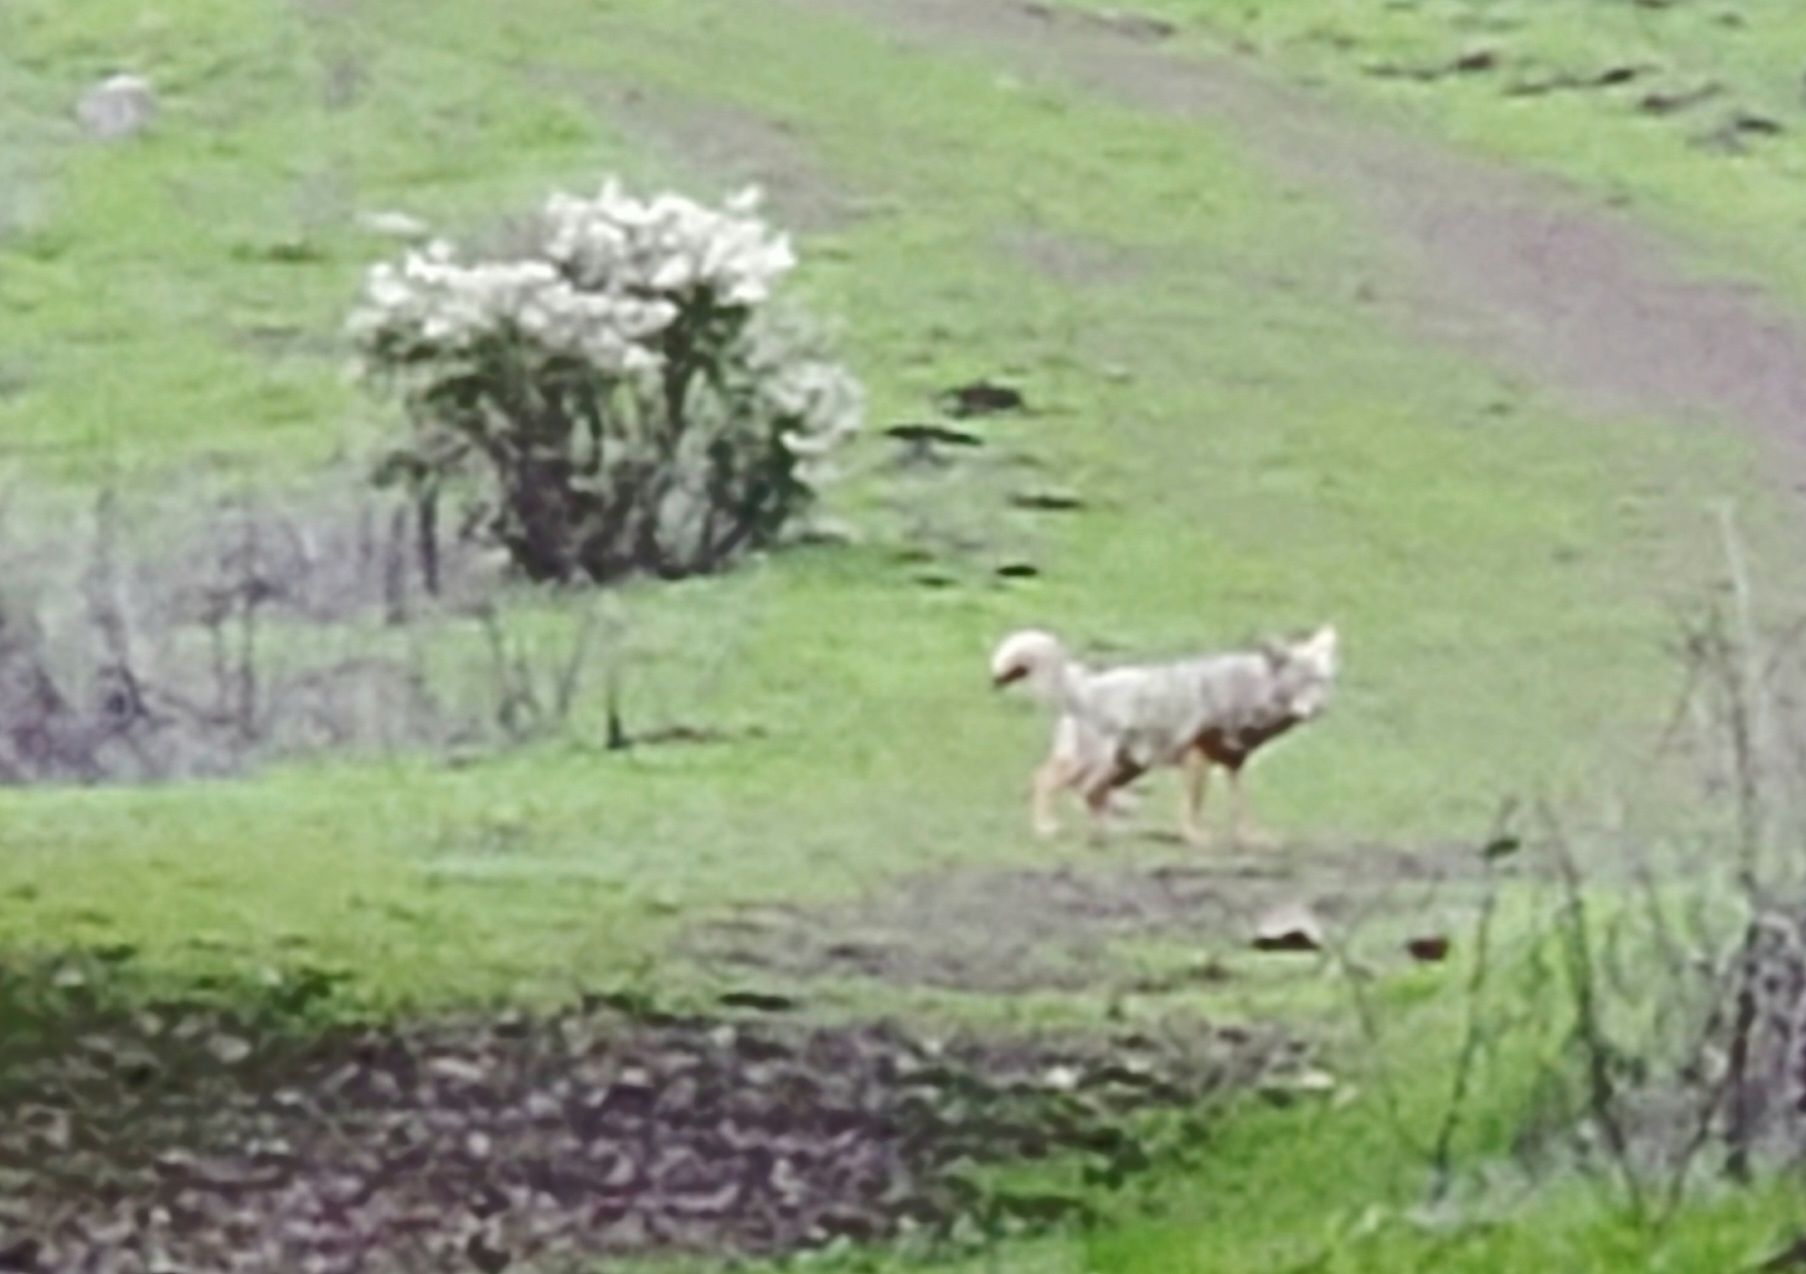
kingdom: Animalia
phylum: Chordata
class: Mammalia
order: Carnivora
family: Canidae
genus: Canis
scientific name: Canis latrans
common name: Coyote
